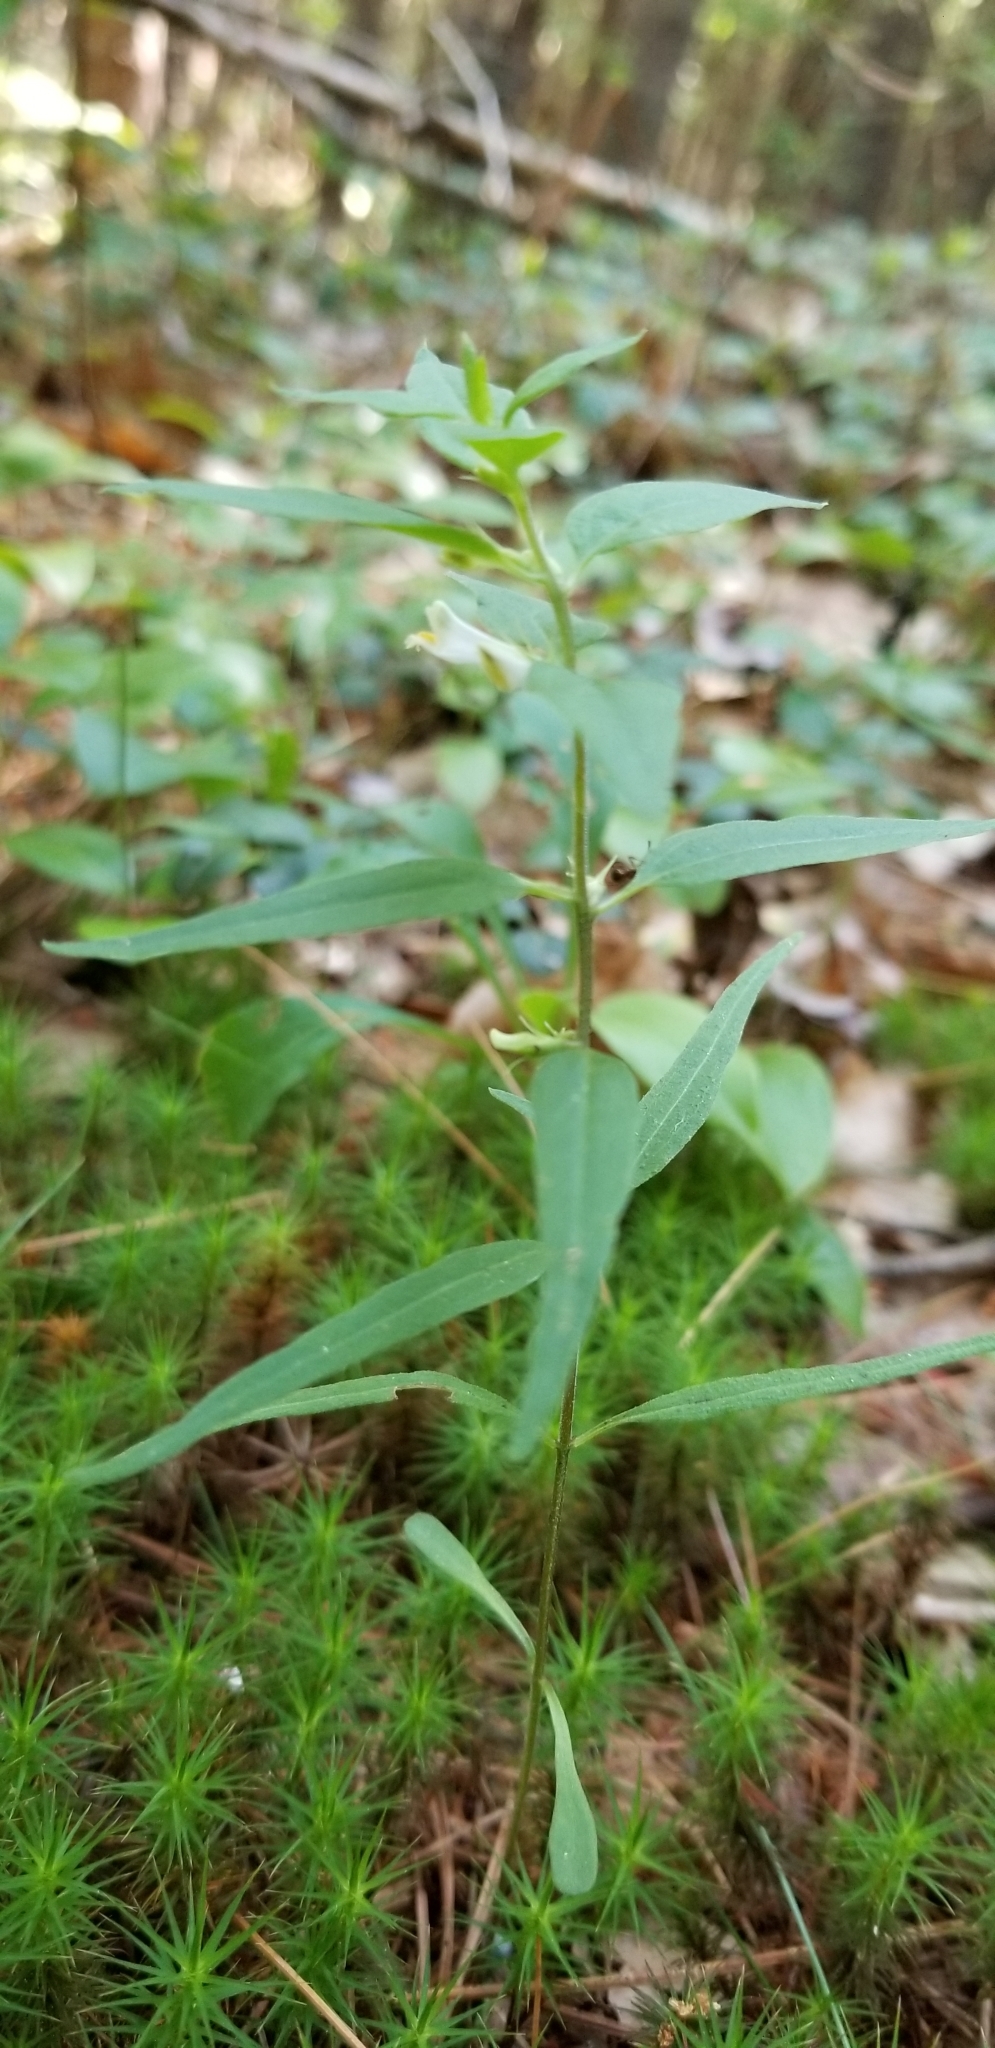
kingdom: Plantae
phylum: Tracheophyta
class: Magnoliopsida
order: Lamiales
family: Orobanchaceae
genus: Melampyrum
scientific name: Melampyrum lineare
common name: American cow-wheat
